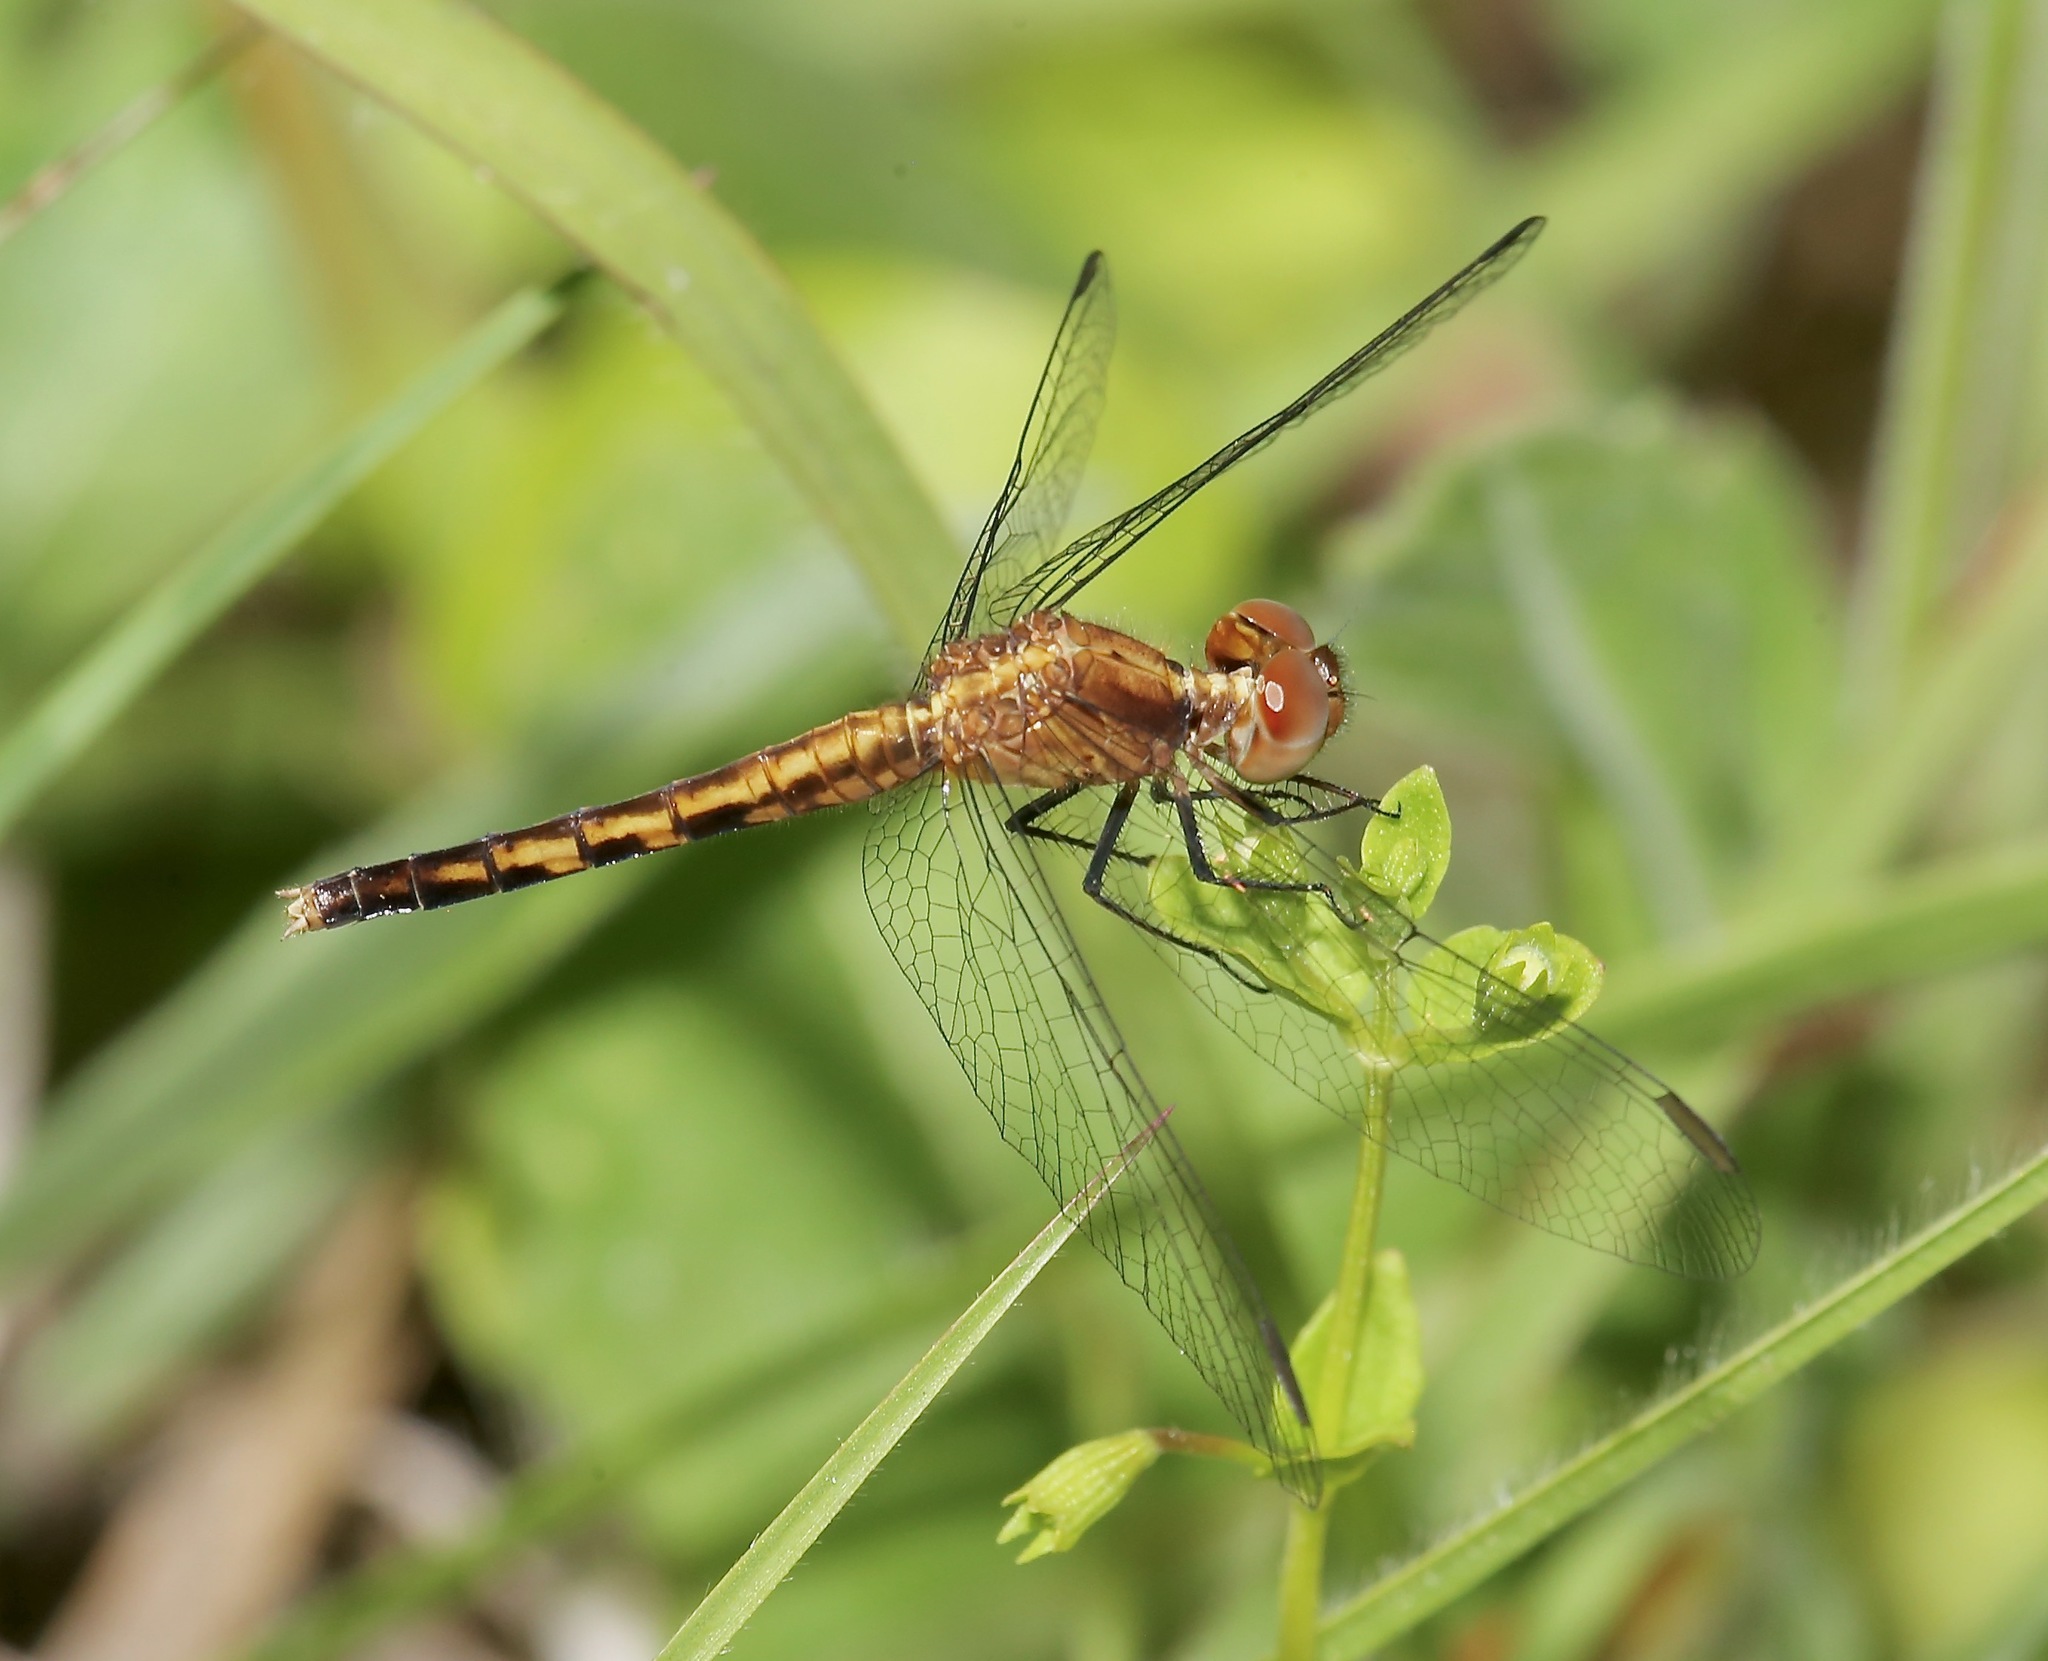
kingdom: Animalia
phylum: Arthropoda
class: Insecta
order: Odonata
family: Libellulidae
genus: Erythrodiplax
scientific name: Erythrodiplax minuscula
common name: Little blue dragonlet
